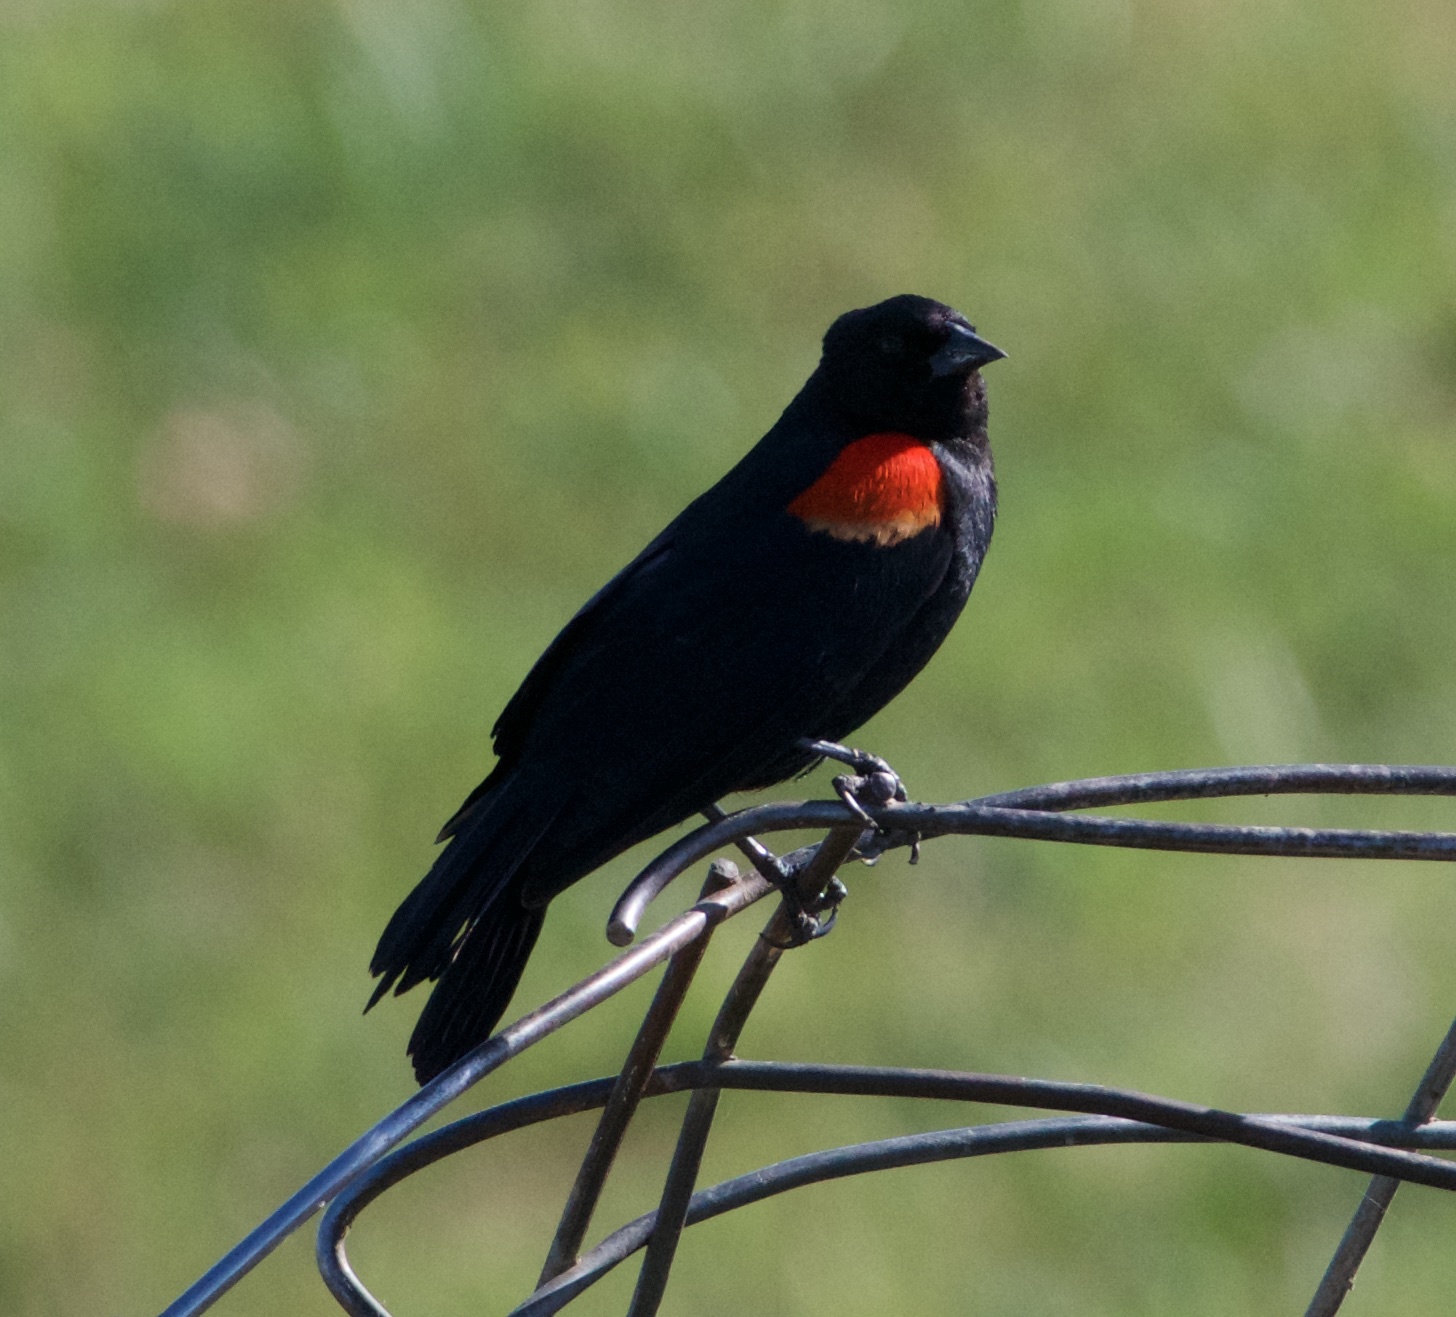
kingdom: Animalia
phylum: Chordata
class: Aves
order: Passeriformes
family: Icteridae
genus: Agelaius
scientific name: Agelaius phoeniceus
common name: Red-winged blackbird
